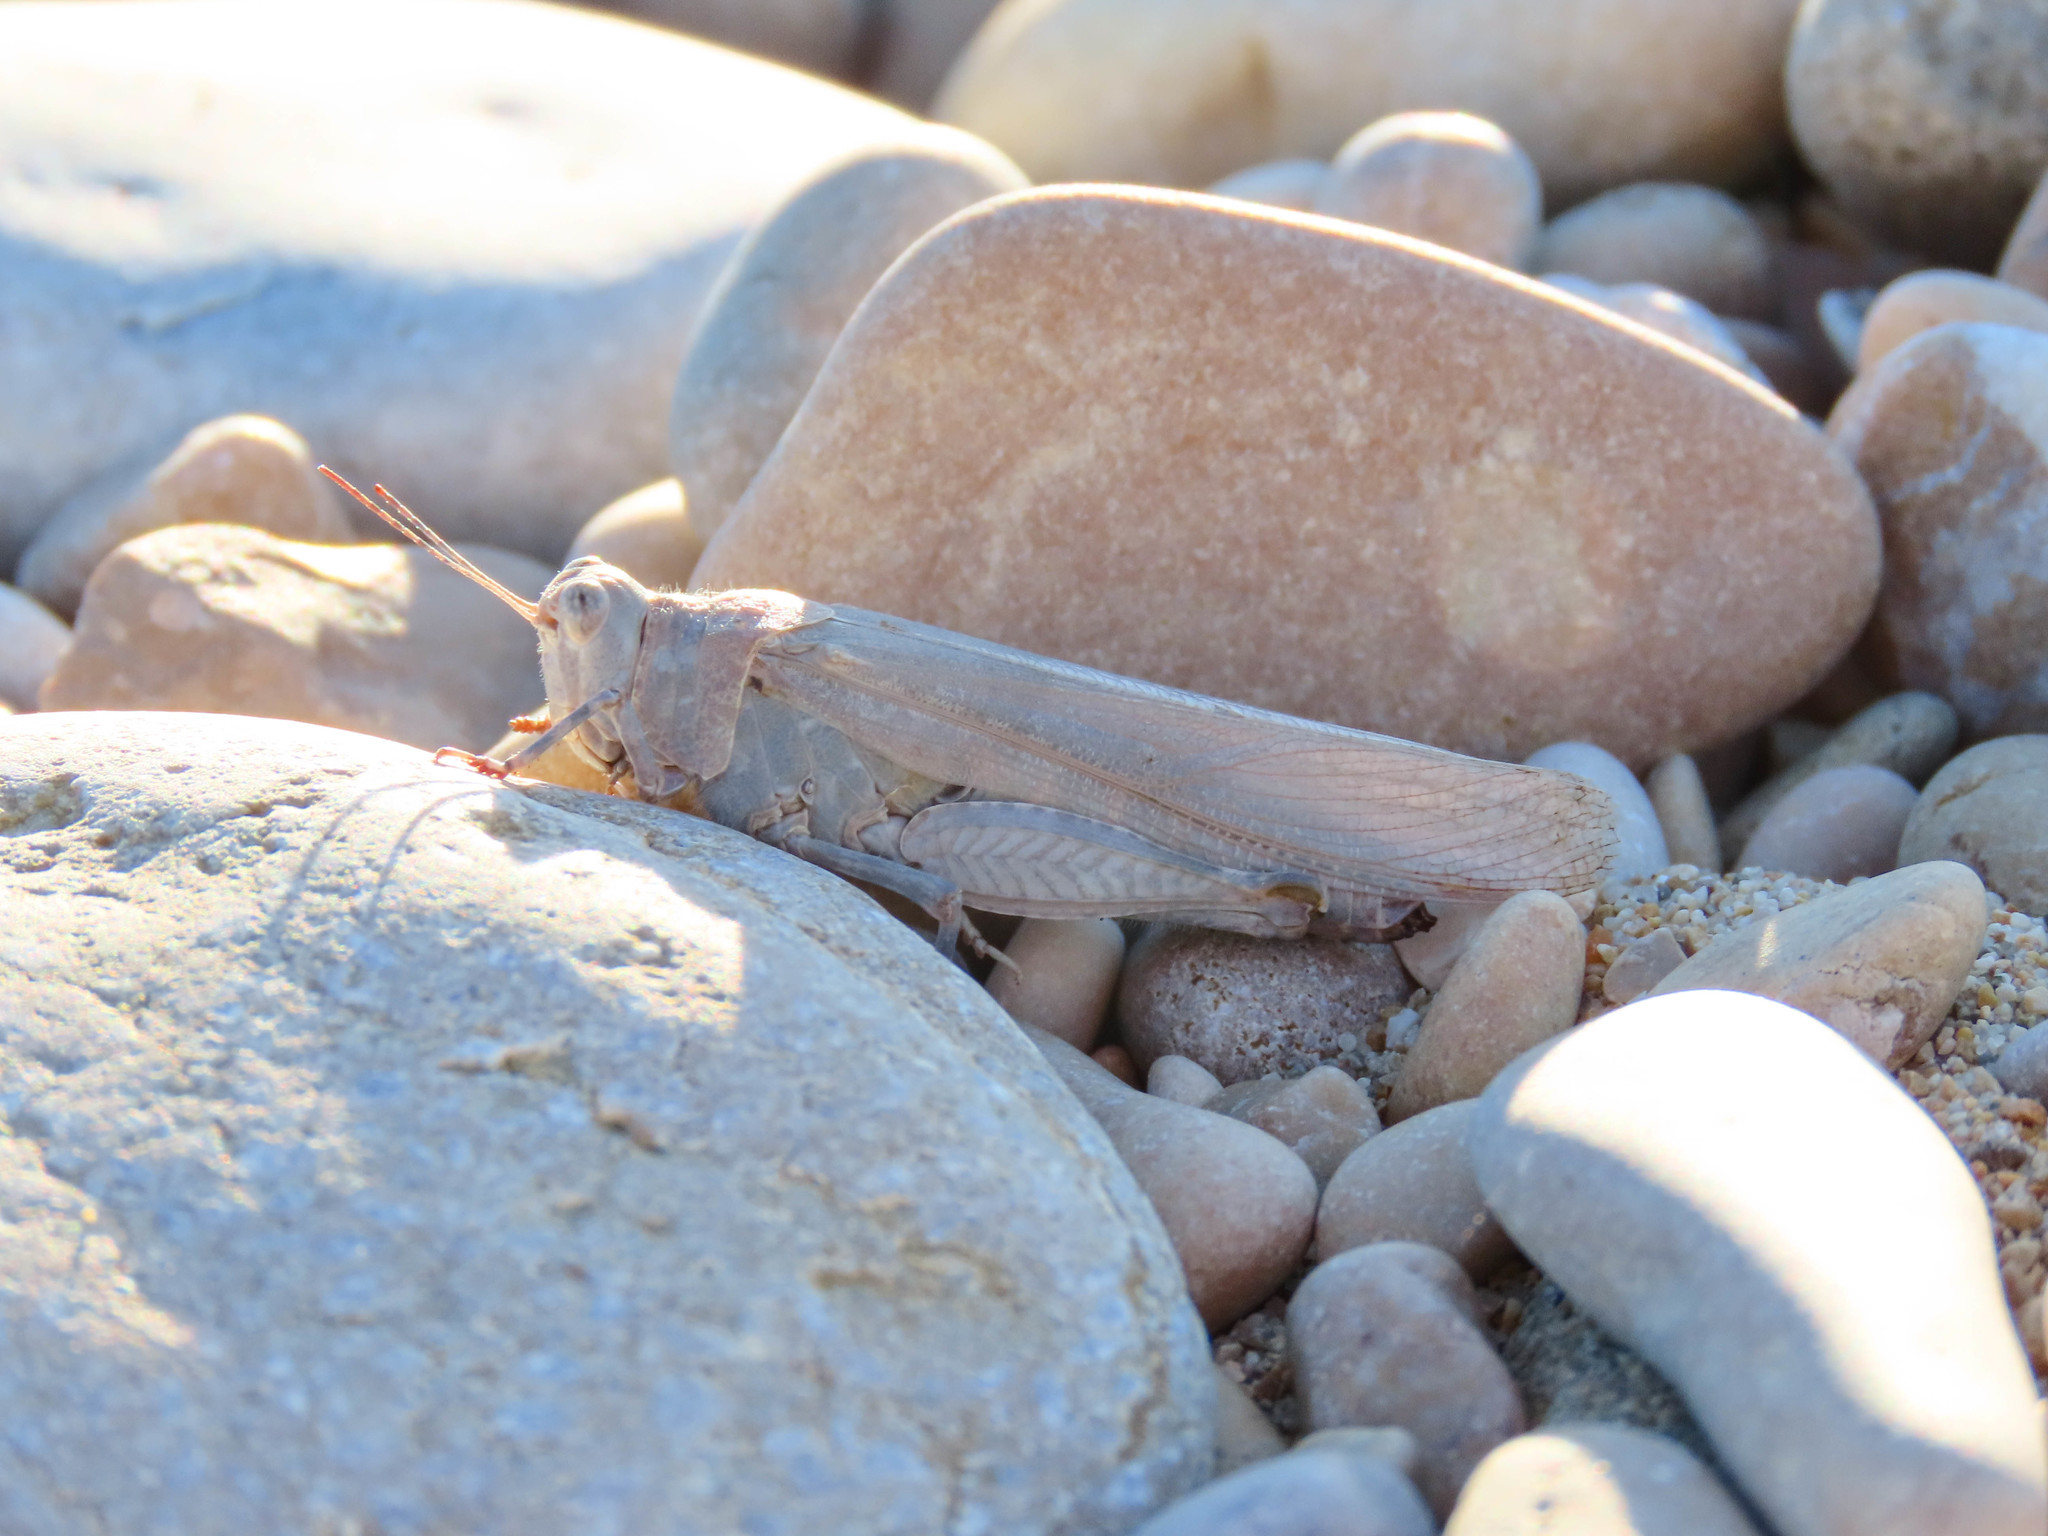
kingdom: Animalia
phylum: Arthropoda
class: Insecta
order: Orthoptera
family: Acrididae
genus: Sphingonotus
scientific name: Sphingonotus caerulans
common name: Blue-winged locust
